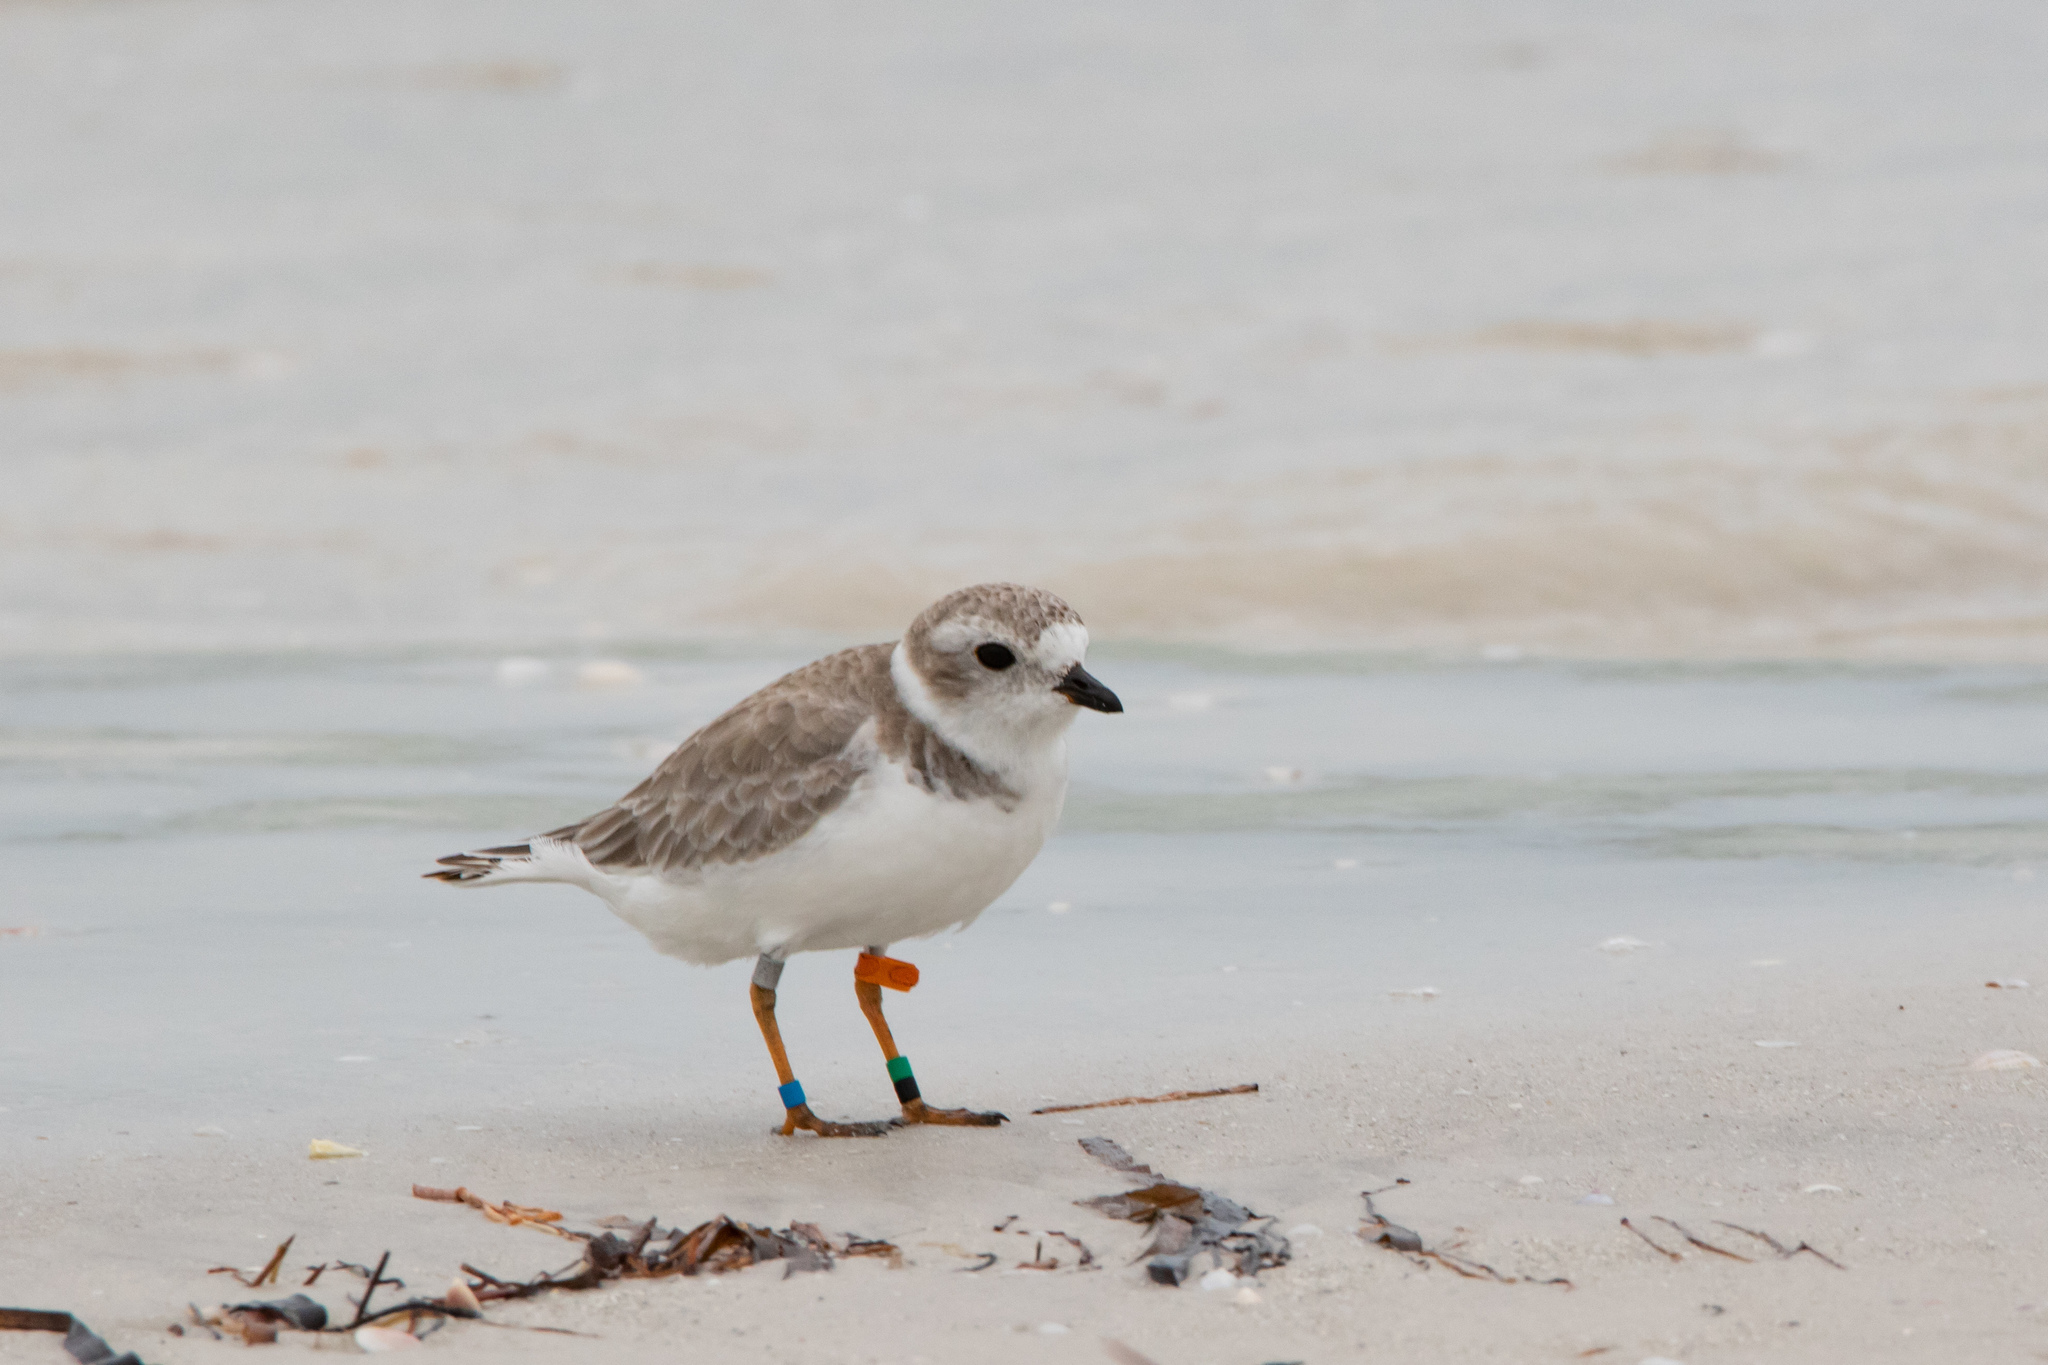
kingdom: Animalia
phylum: Chordata
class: Aves
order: Charadriiformes
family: Charadriidae
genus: Charadrius
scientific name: Charadrius melodus
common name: Piping plover
